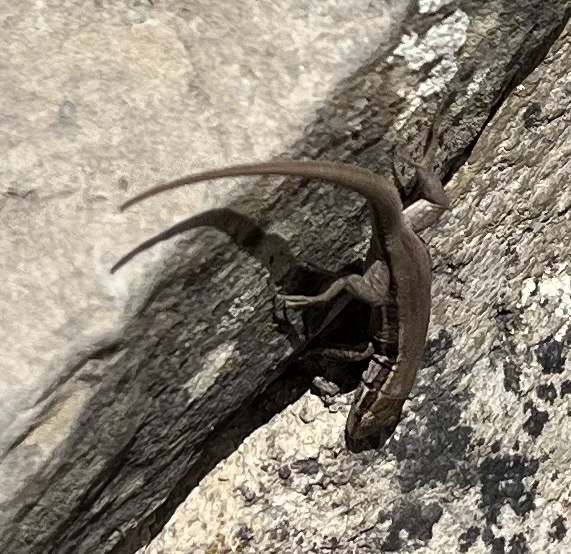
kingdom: Animalia
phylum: Chordata
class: Squamata
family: Lacertidae
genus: Podarcis
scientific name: Podarcis muralis
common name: Common wall lizard
